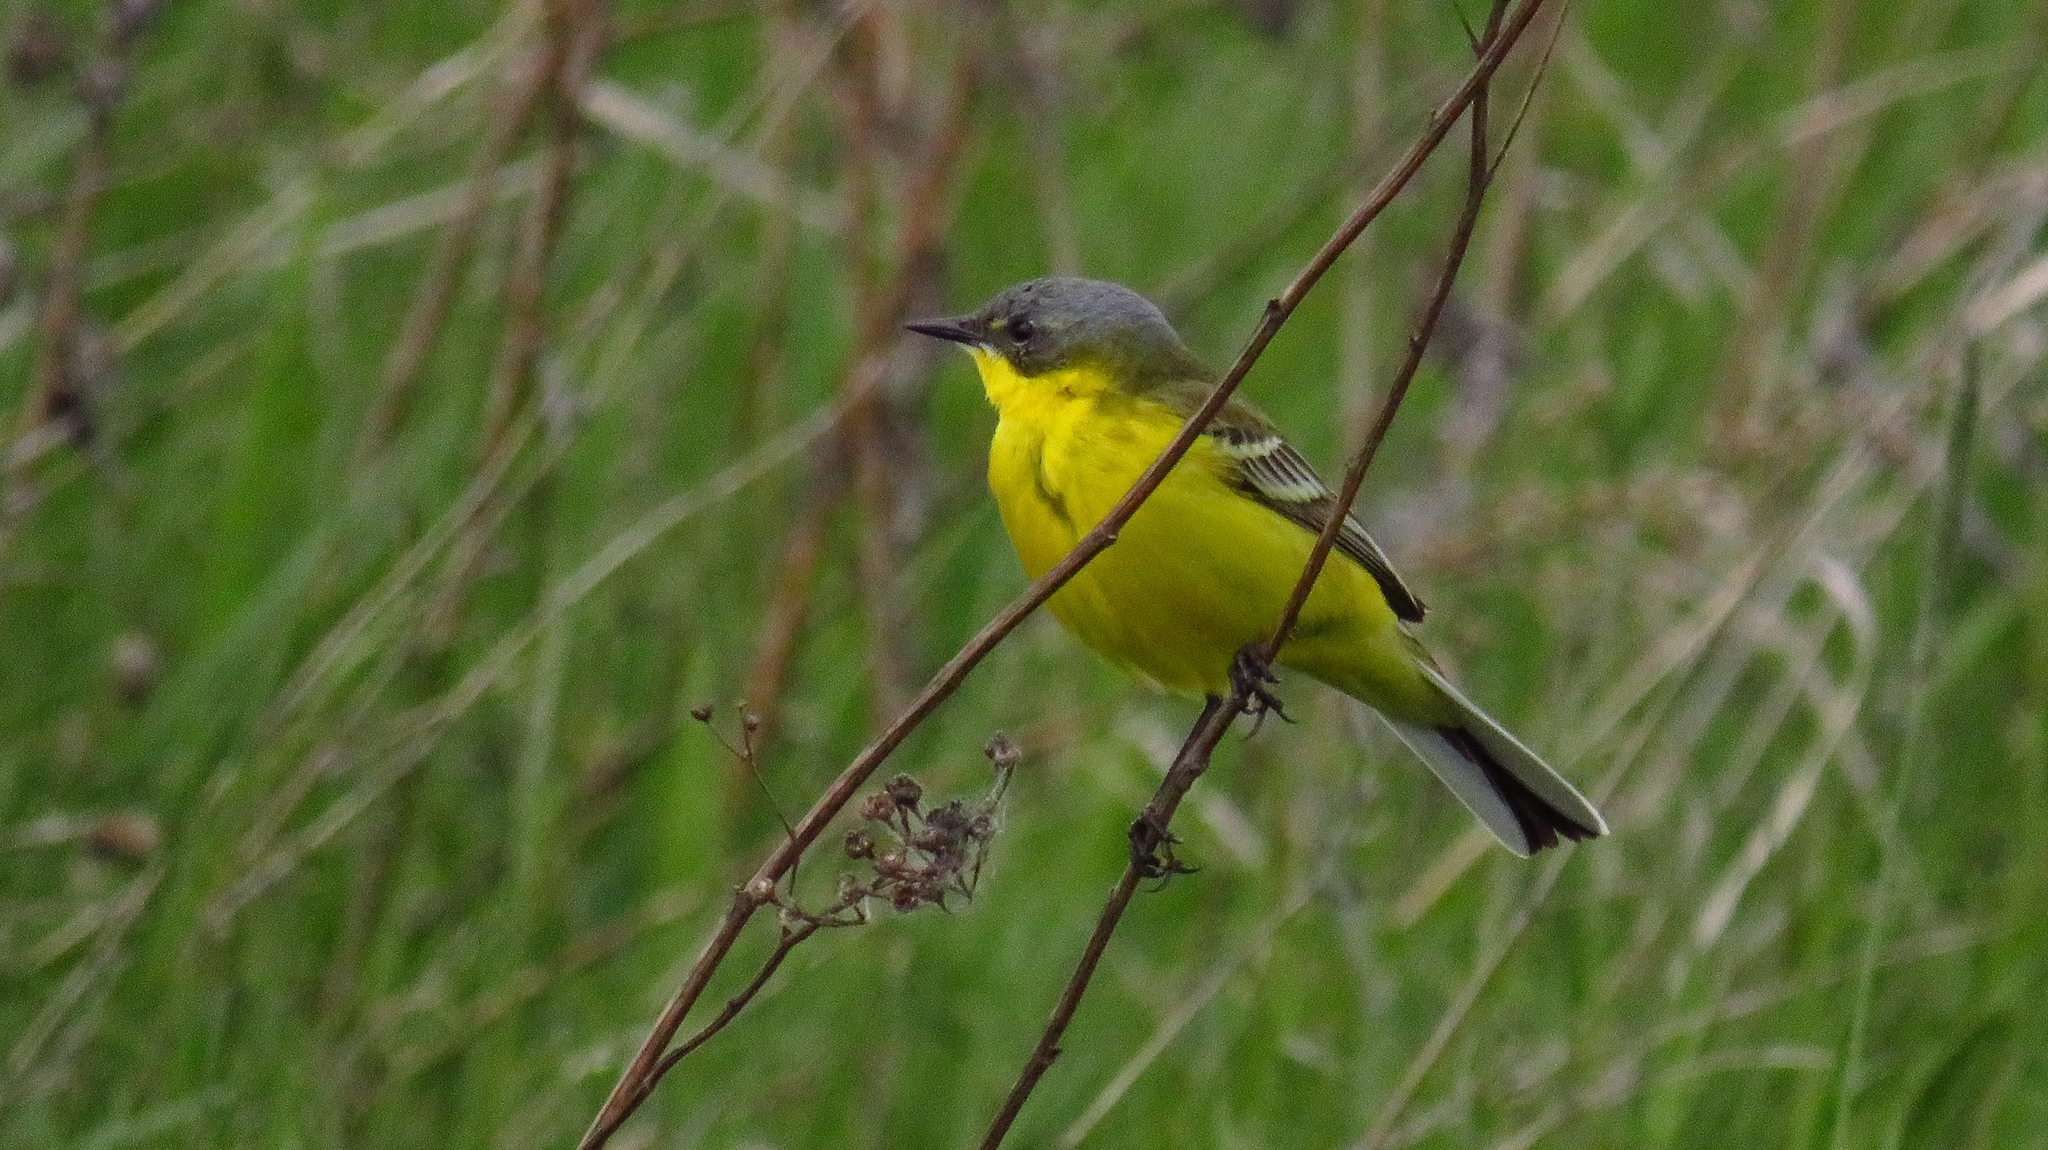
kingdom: Animalia
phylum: Chordata
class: Aves
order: Passeriformes
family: Motacillidae
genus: Motacilla
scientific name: Motacilla flava
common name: Western yellow wagtail
